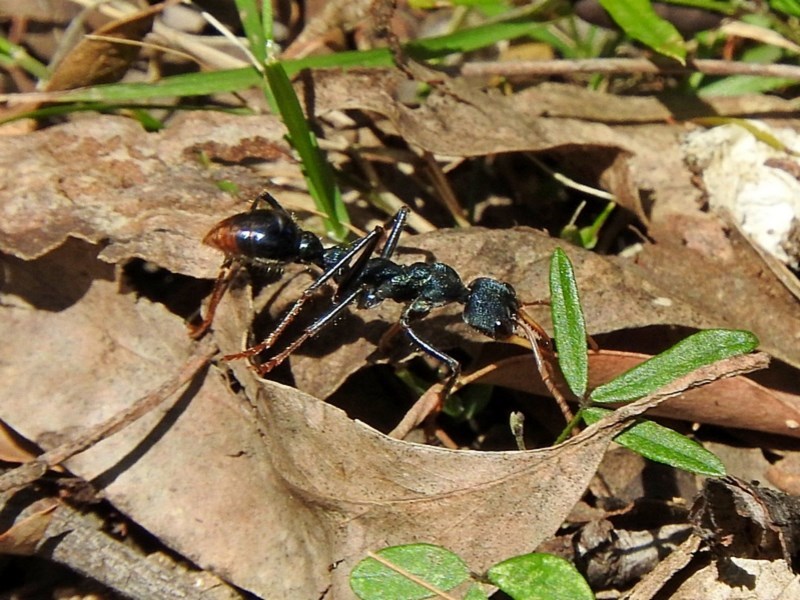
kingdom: Animalia
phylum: Arthropoda
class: Insecta
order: Hymenoptera
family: Formicidae
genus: Myrmecia
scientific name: Myrmecia tarsata
